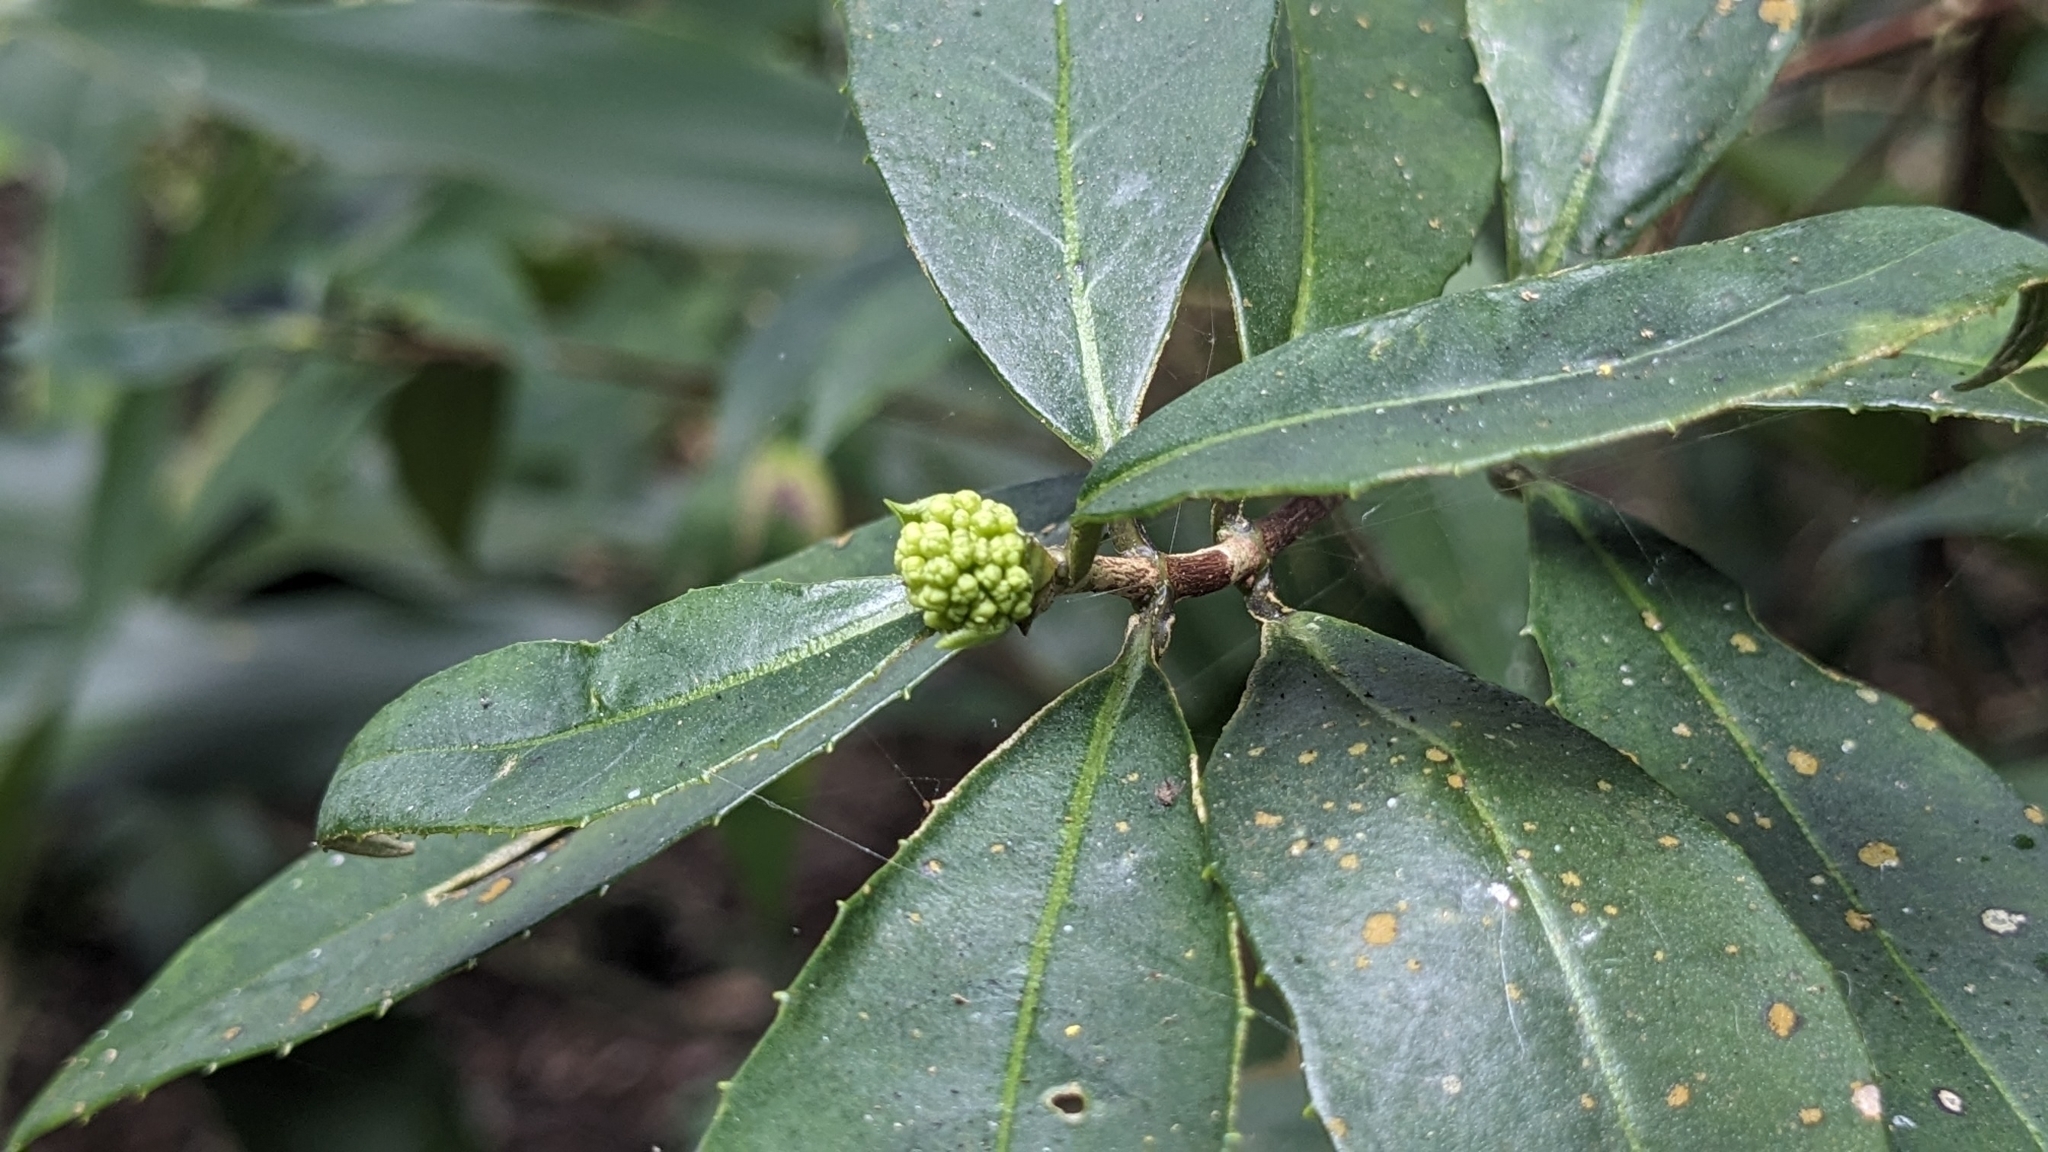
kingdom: Plantae
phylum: Tracheophyta
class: Magnoliopsida
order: Cornales
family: Hydrangeaceae
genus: Hydrangea
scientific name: Hydrangea chinensis
